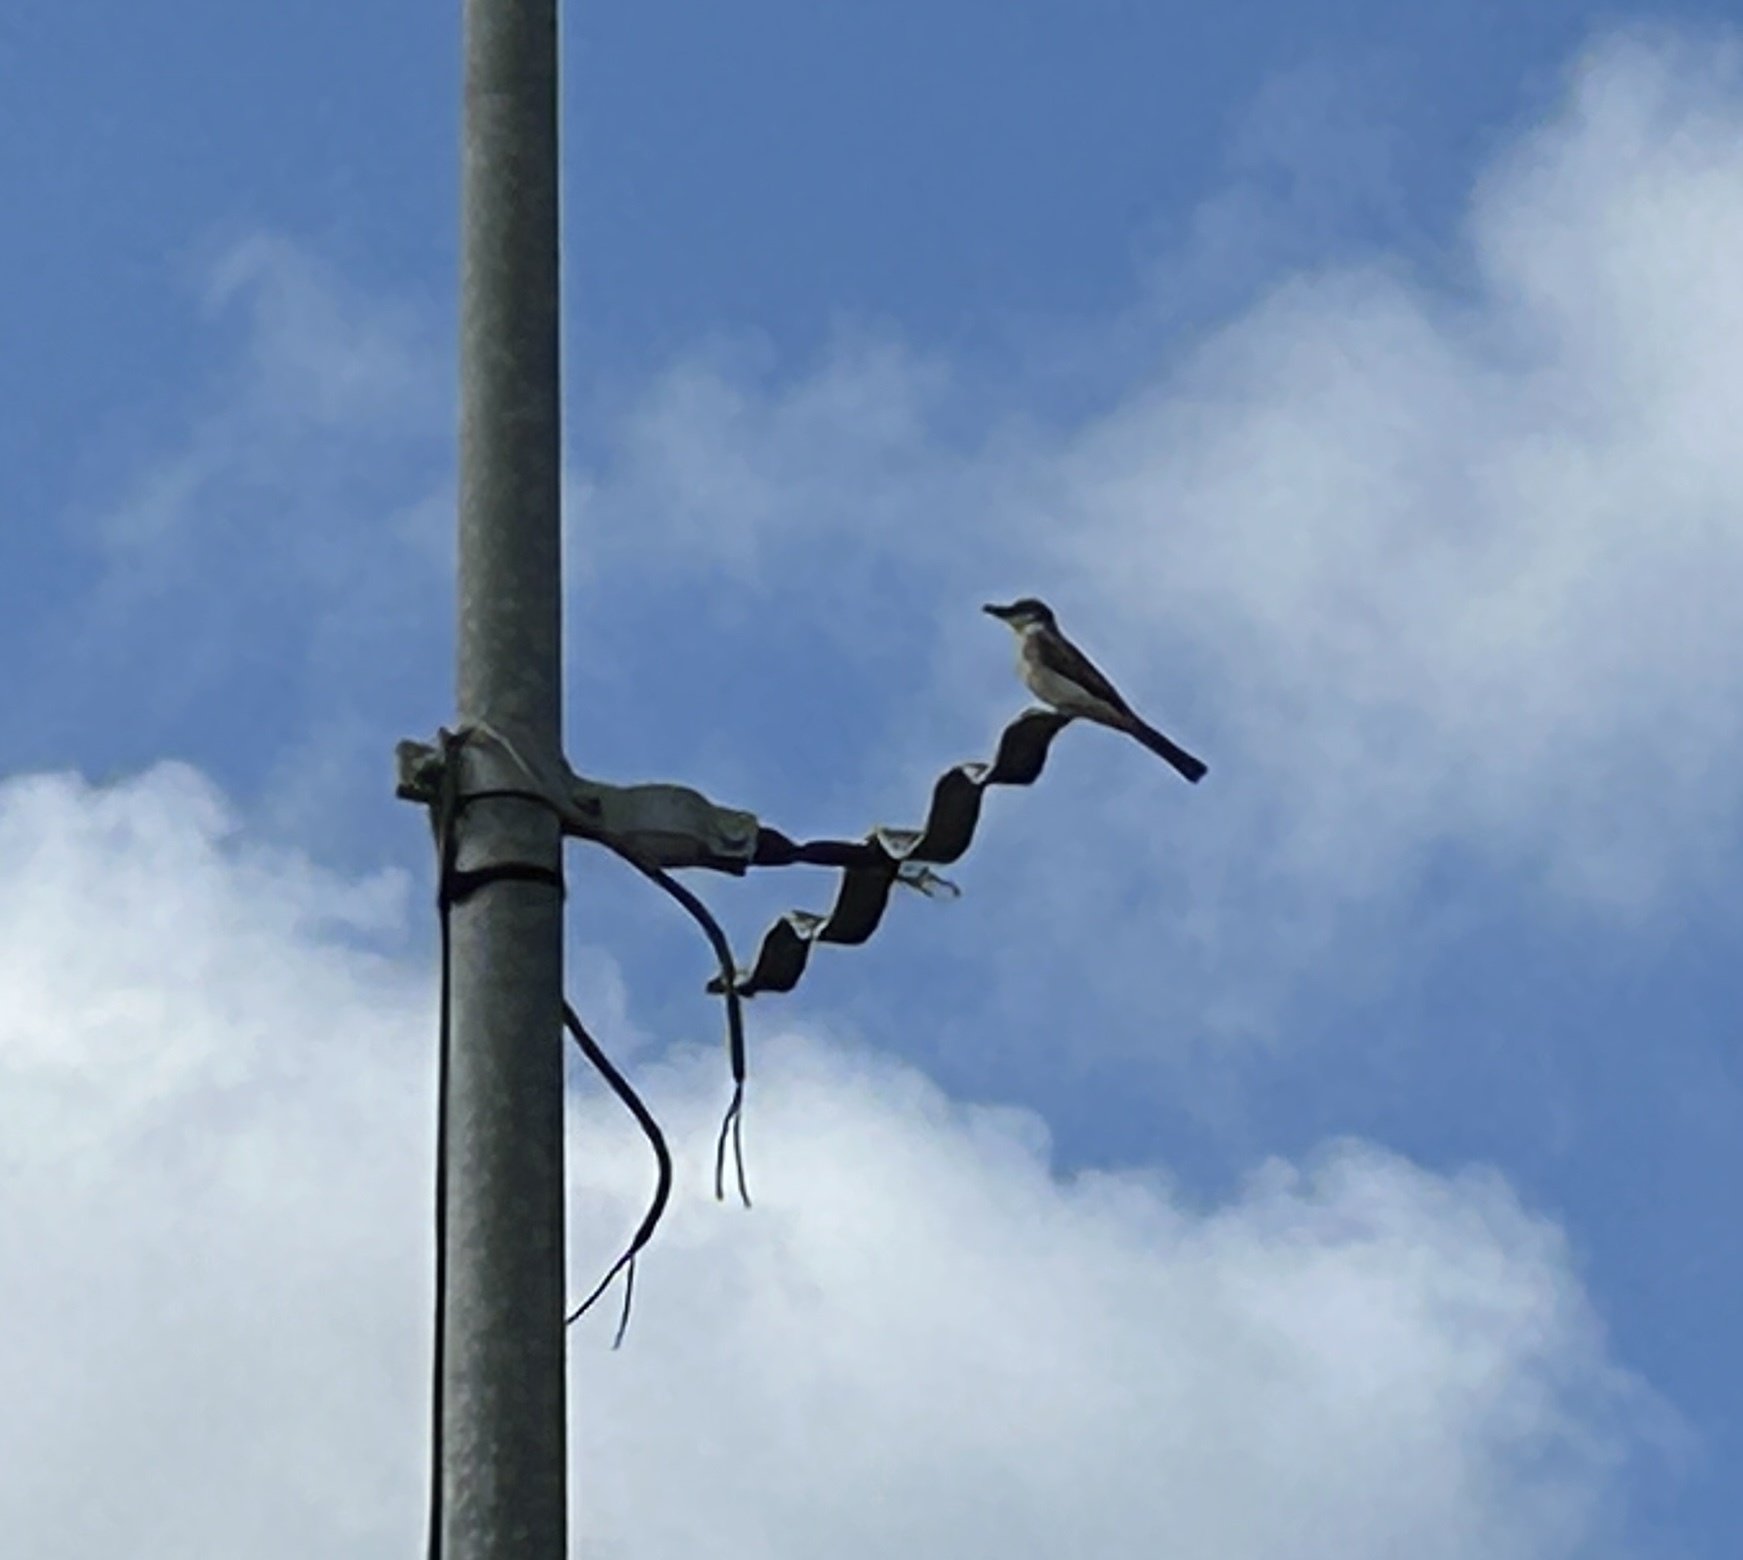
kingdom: Animalia
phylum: Chordata
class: Aves
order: Passeriformes
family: Tyrannidae
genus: Tyrannus
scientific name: Tyrannus dominicensis
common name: Gray kingbird
